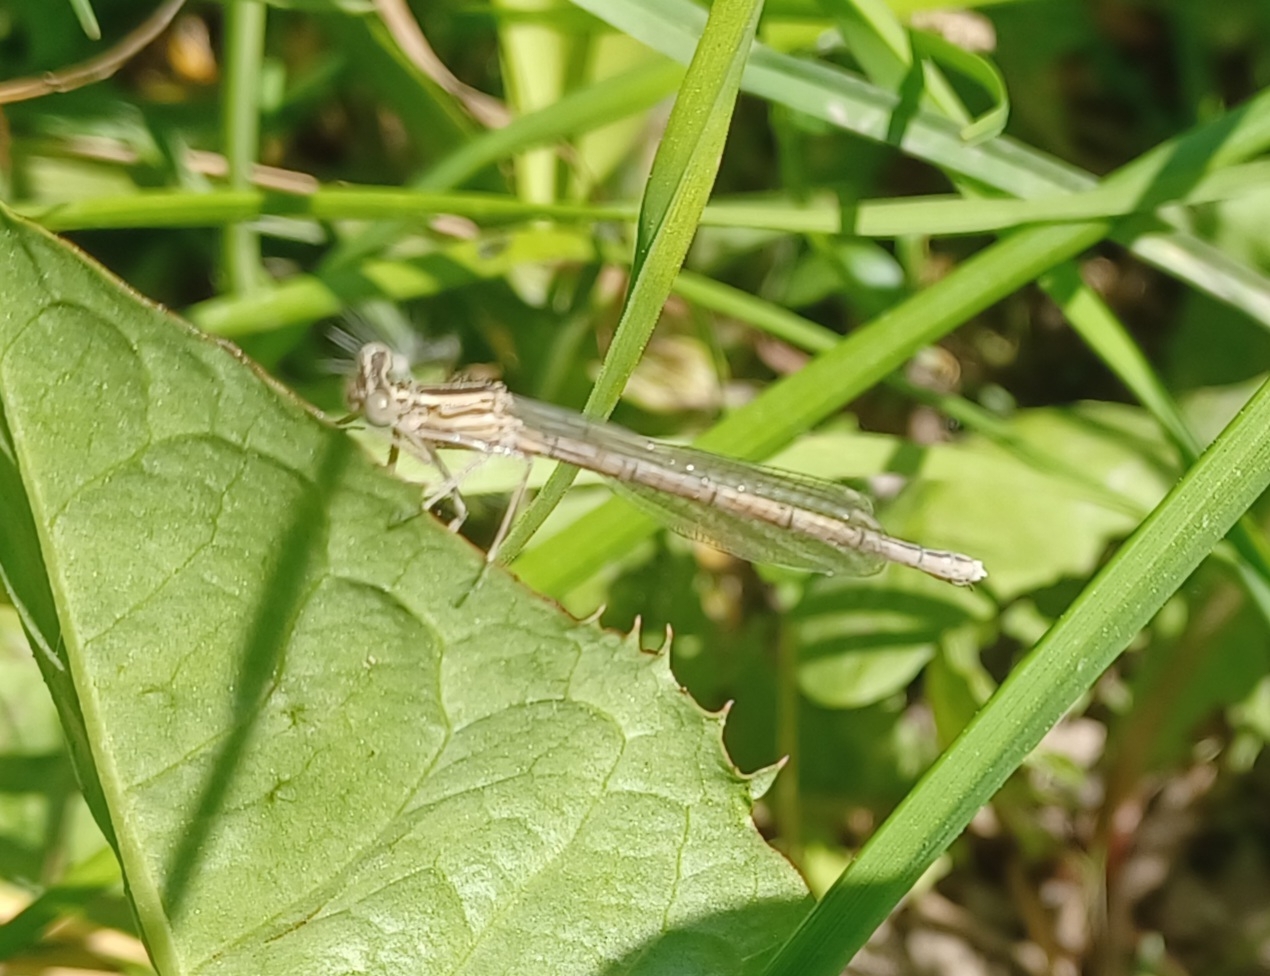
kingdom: Animalia
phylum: Arthropoda
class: Insecta
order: Odonata
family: Platycnemididae
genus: Platycnemis
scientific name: Platycnemis pennipes
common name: White-legged damselfly
